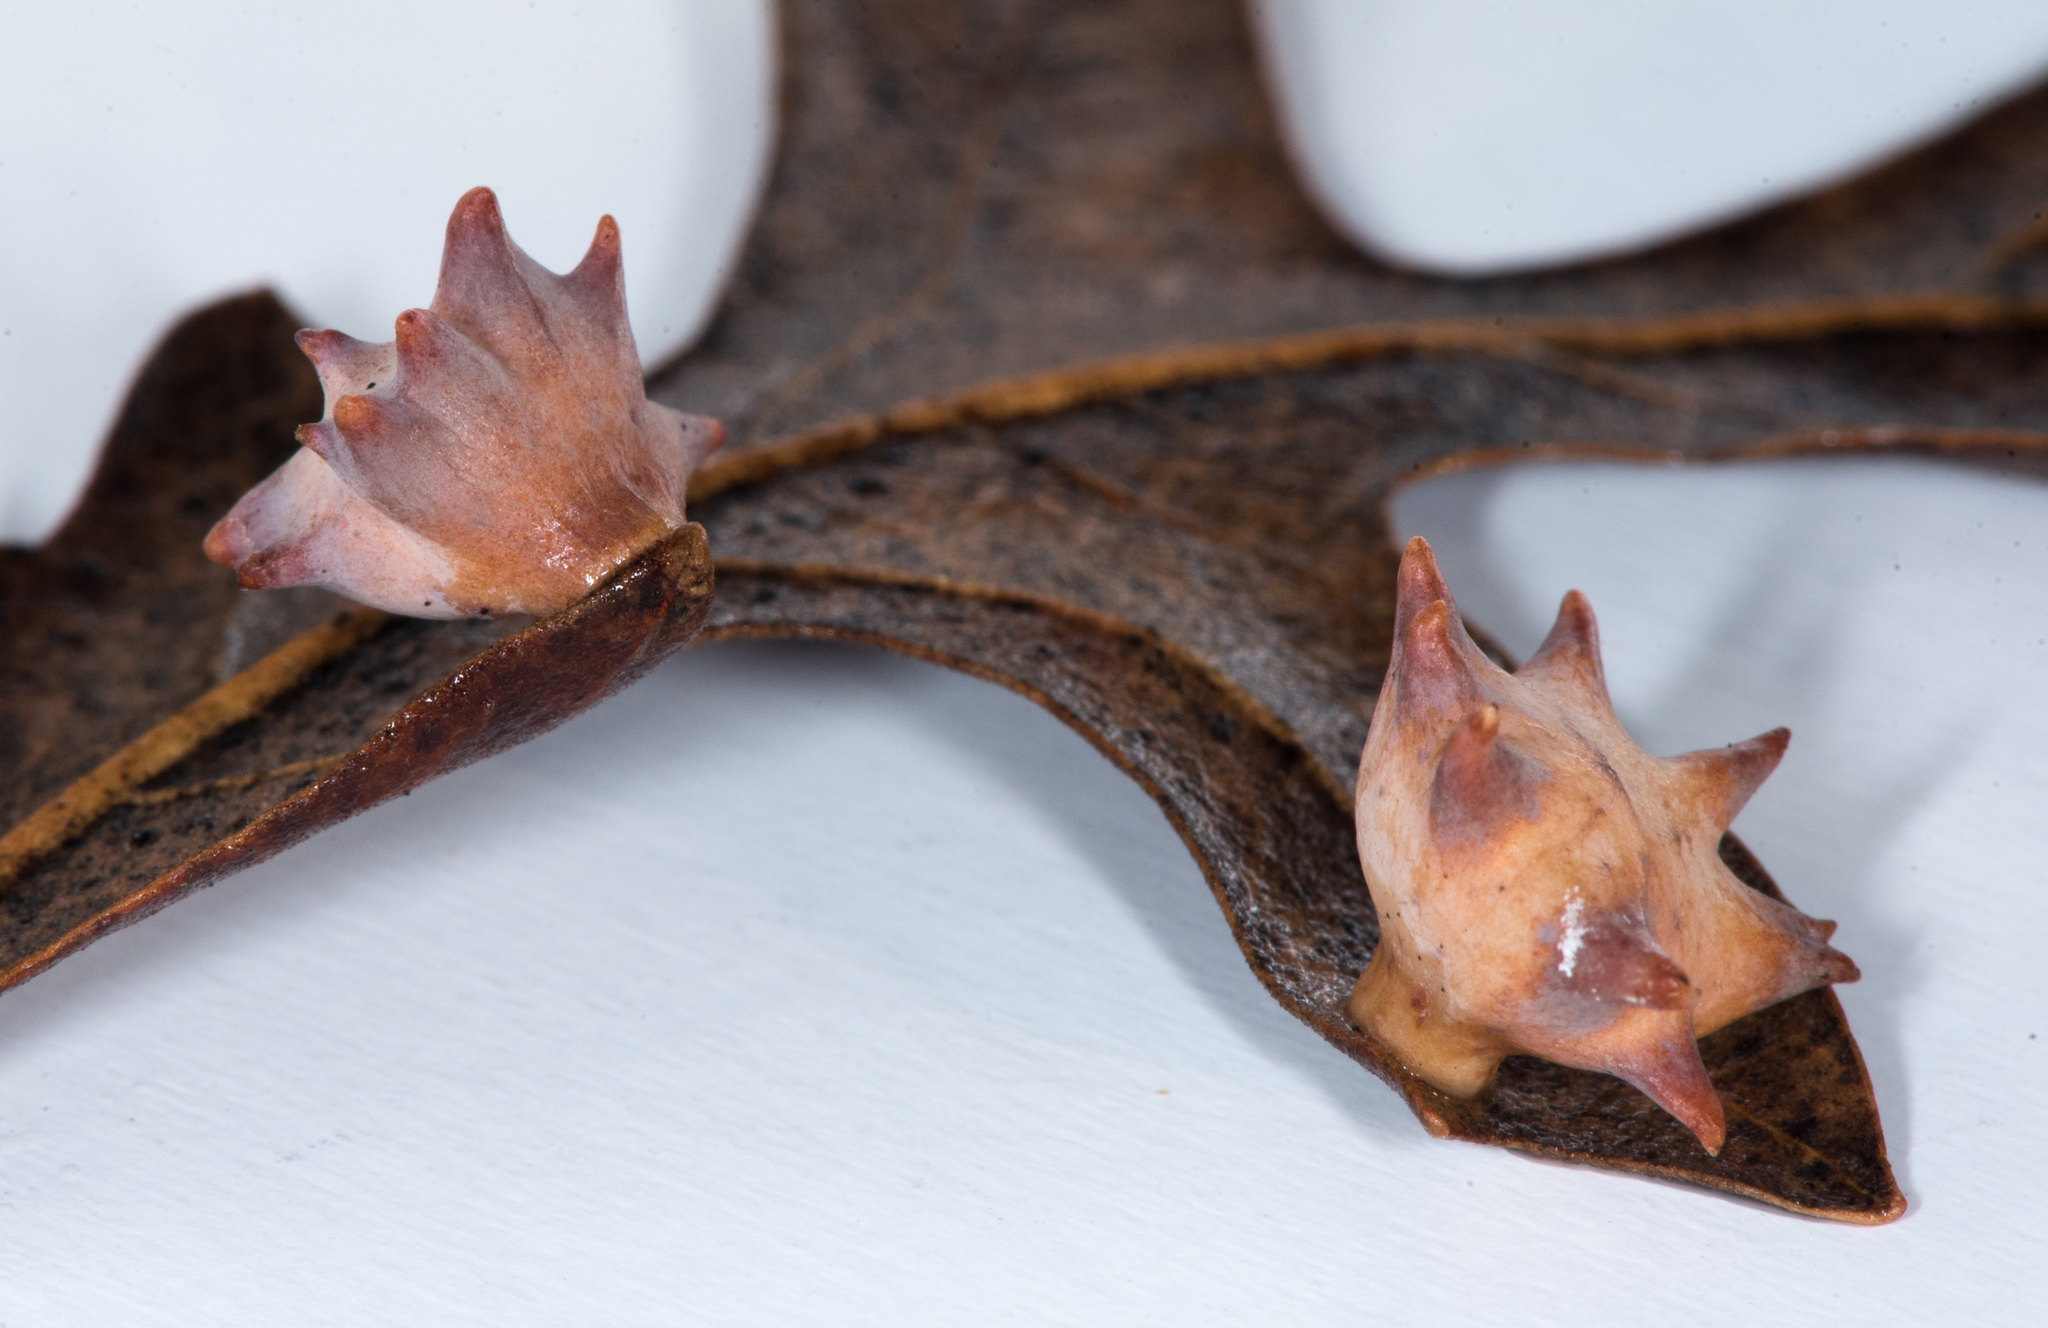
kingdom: Animalia
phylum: Arthropoda
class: Insecta
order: Hymenoptera
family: Cynipidae
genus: Cynips
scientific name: Cynips douglasi
